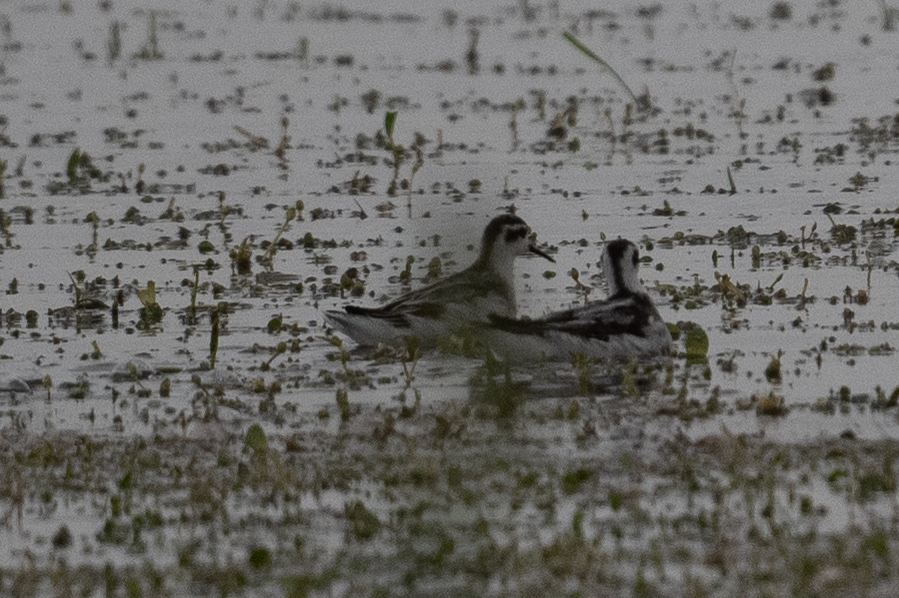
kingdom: Animalia
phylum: Chordata
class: Aves
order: Charadriiformes
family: Scolopacidae
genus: Phalaropus
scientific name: Phalaropus lobatus
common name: Red-necked phalarope
